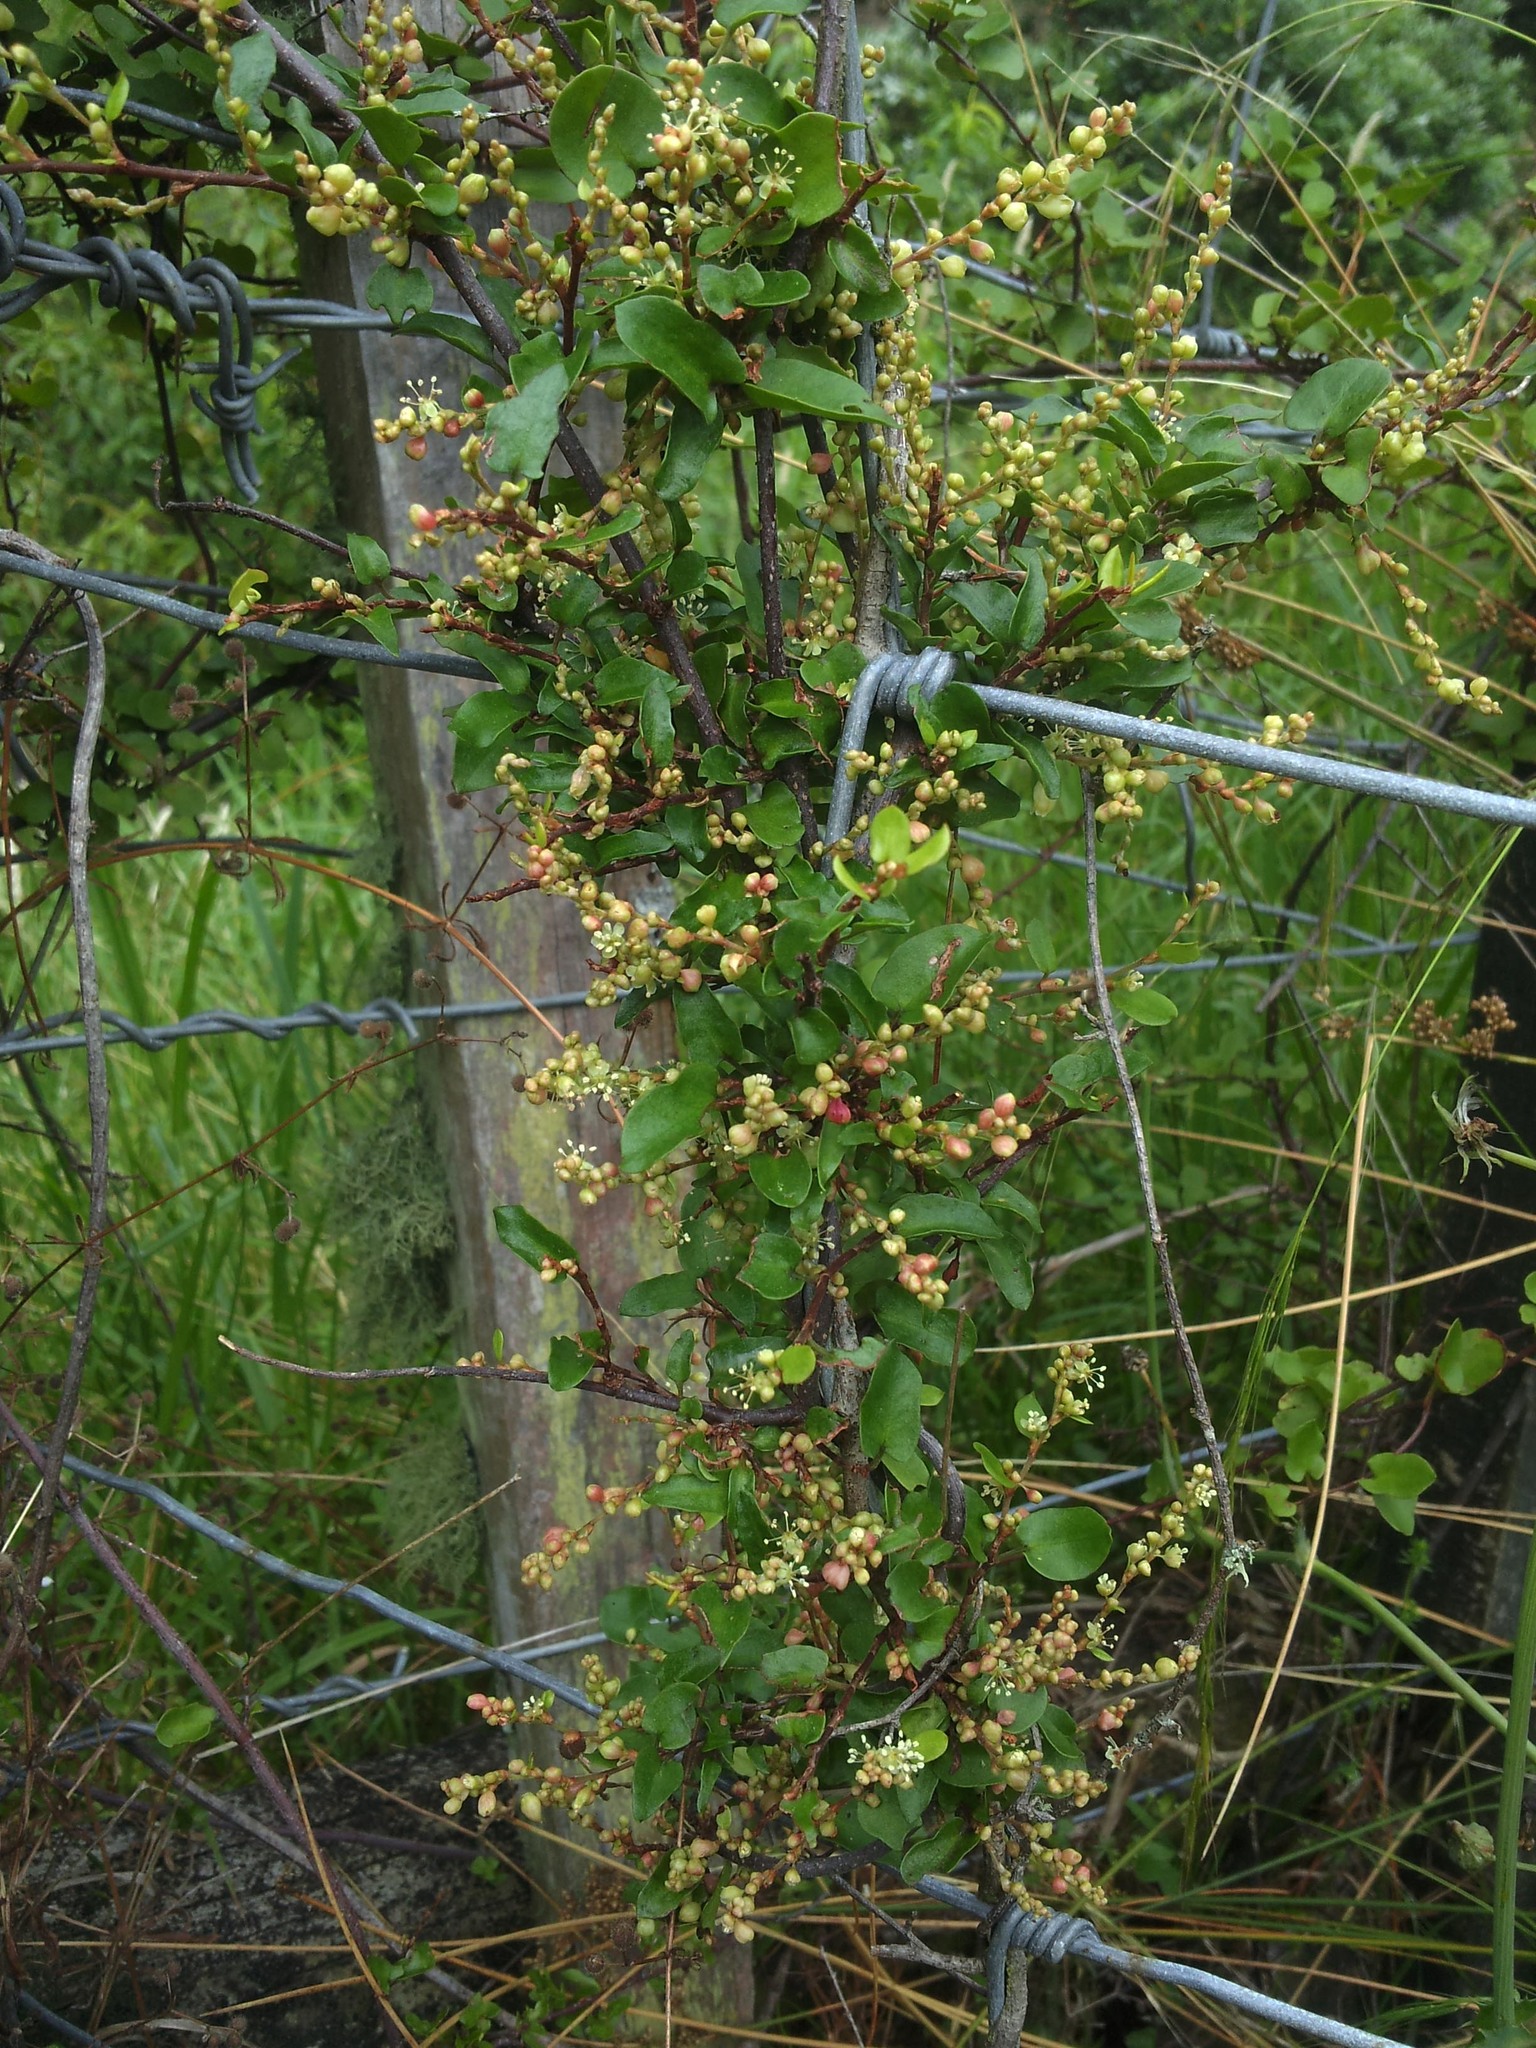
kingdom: Plantae
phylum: Tracheophyta
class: Magnoliopsida
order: Caryophyllales
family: Polygonaceae
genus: Muehlenbeckia
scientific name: Muehlenbeckia complexa
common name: Wireplant
